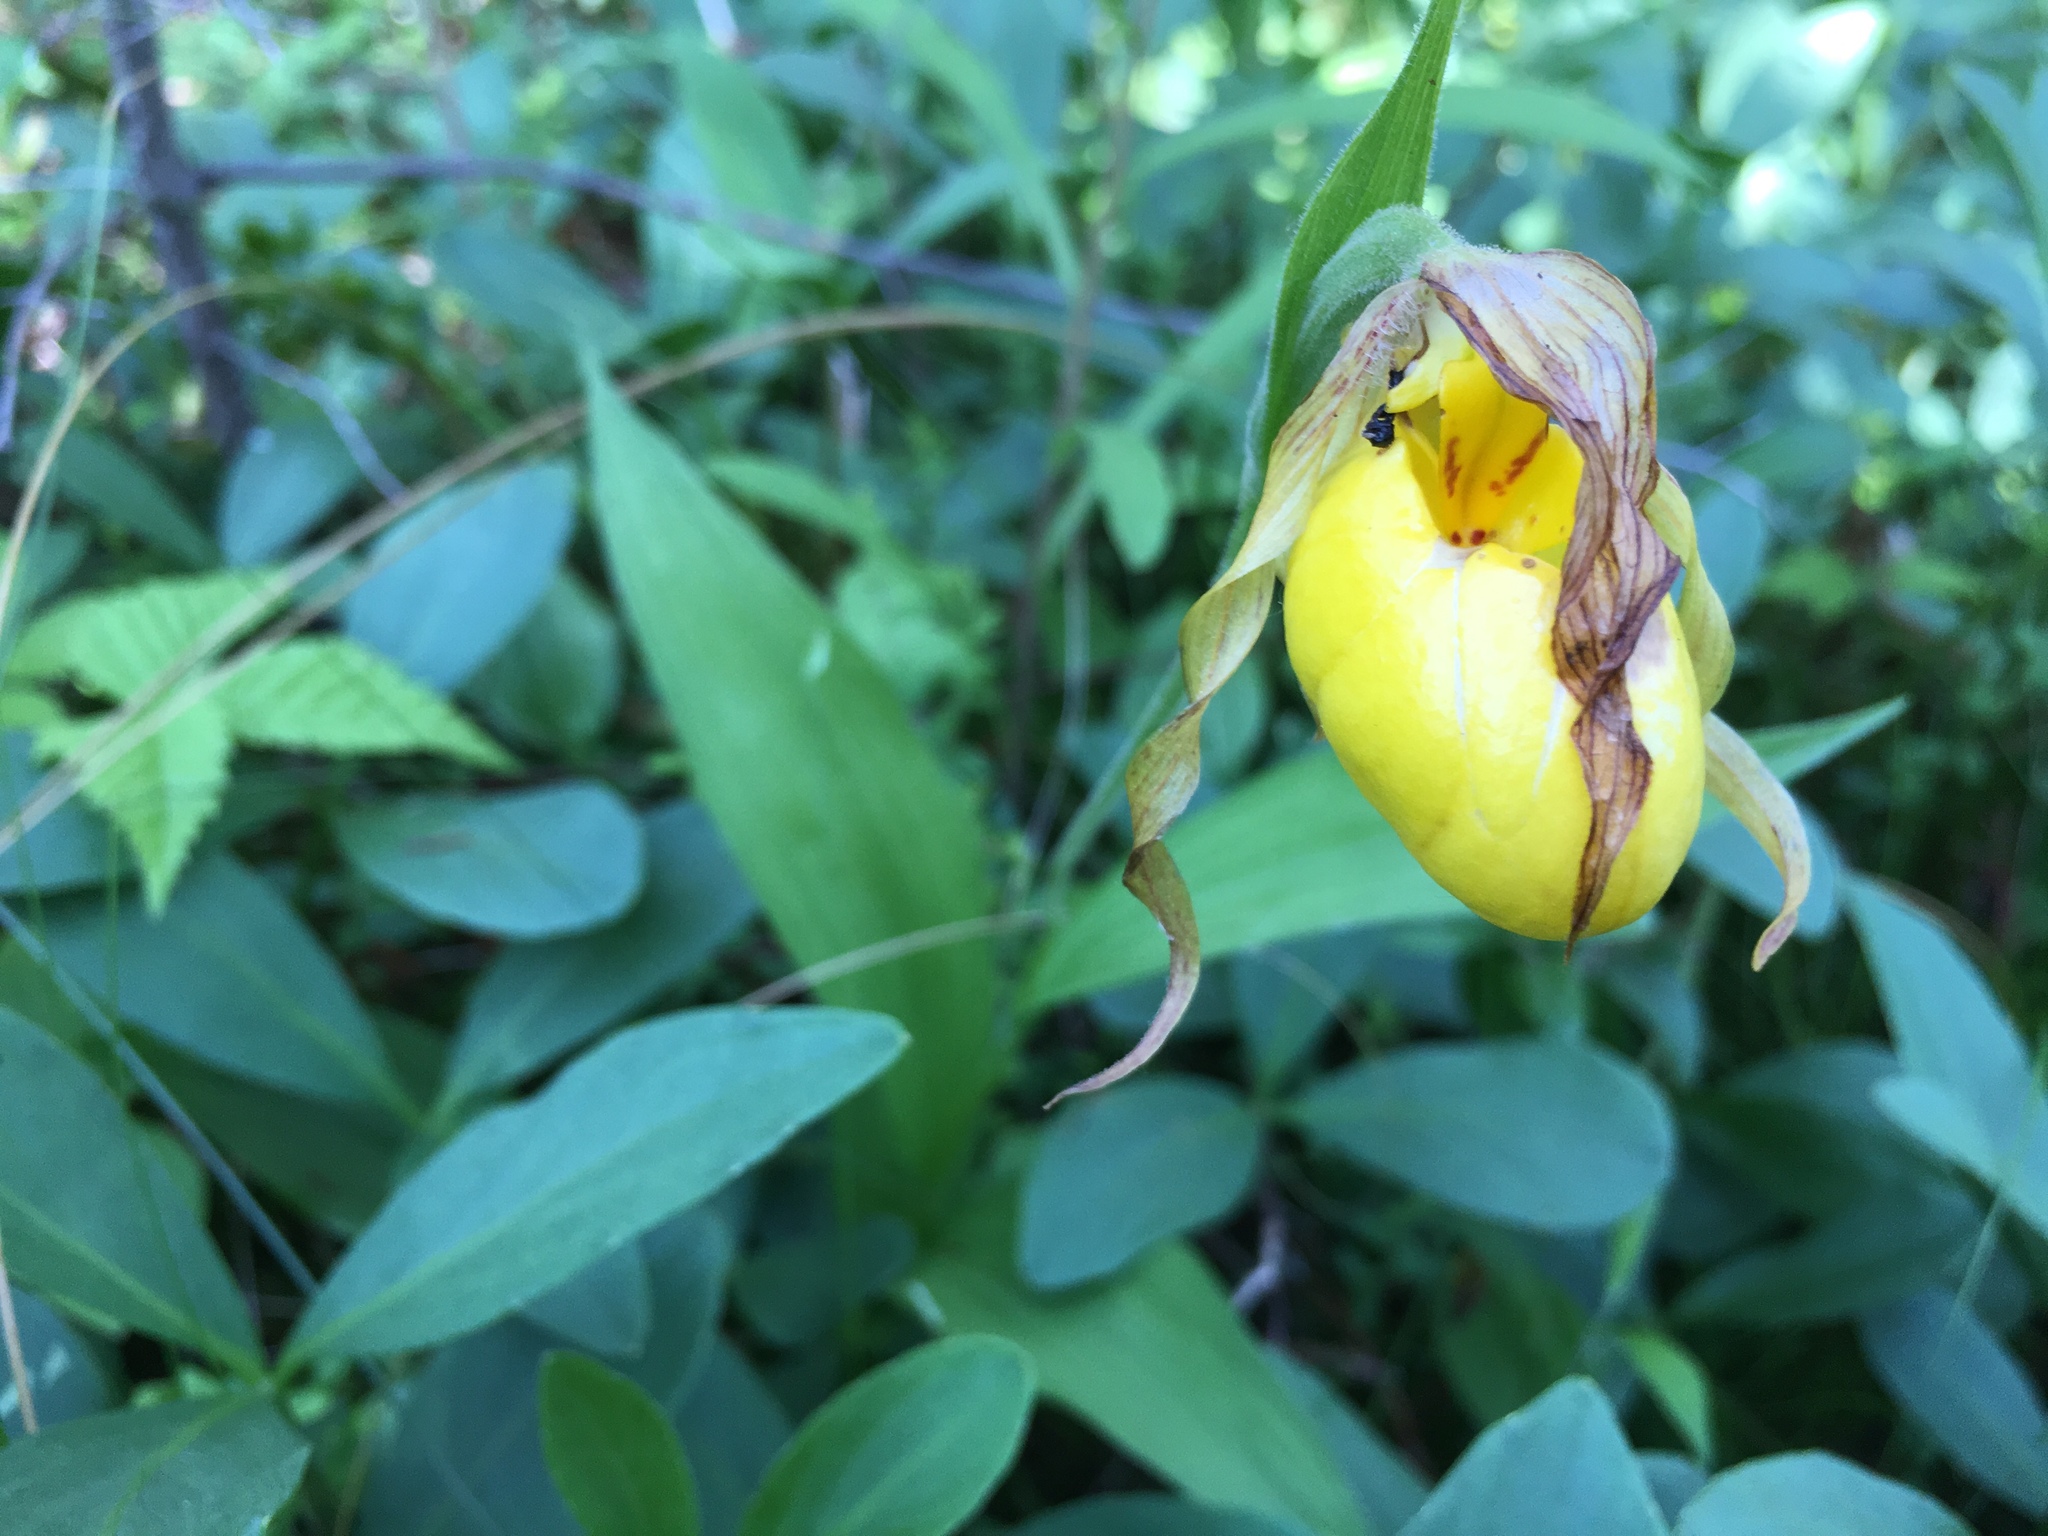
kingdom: Plantae
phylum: Tracheophyta
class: Liliopsida
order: Asparagales
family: Orchidaceae
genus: Cypripedium
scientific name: Cypripedium parviflorum
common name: American yellow lady's-slipper
